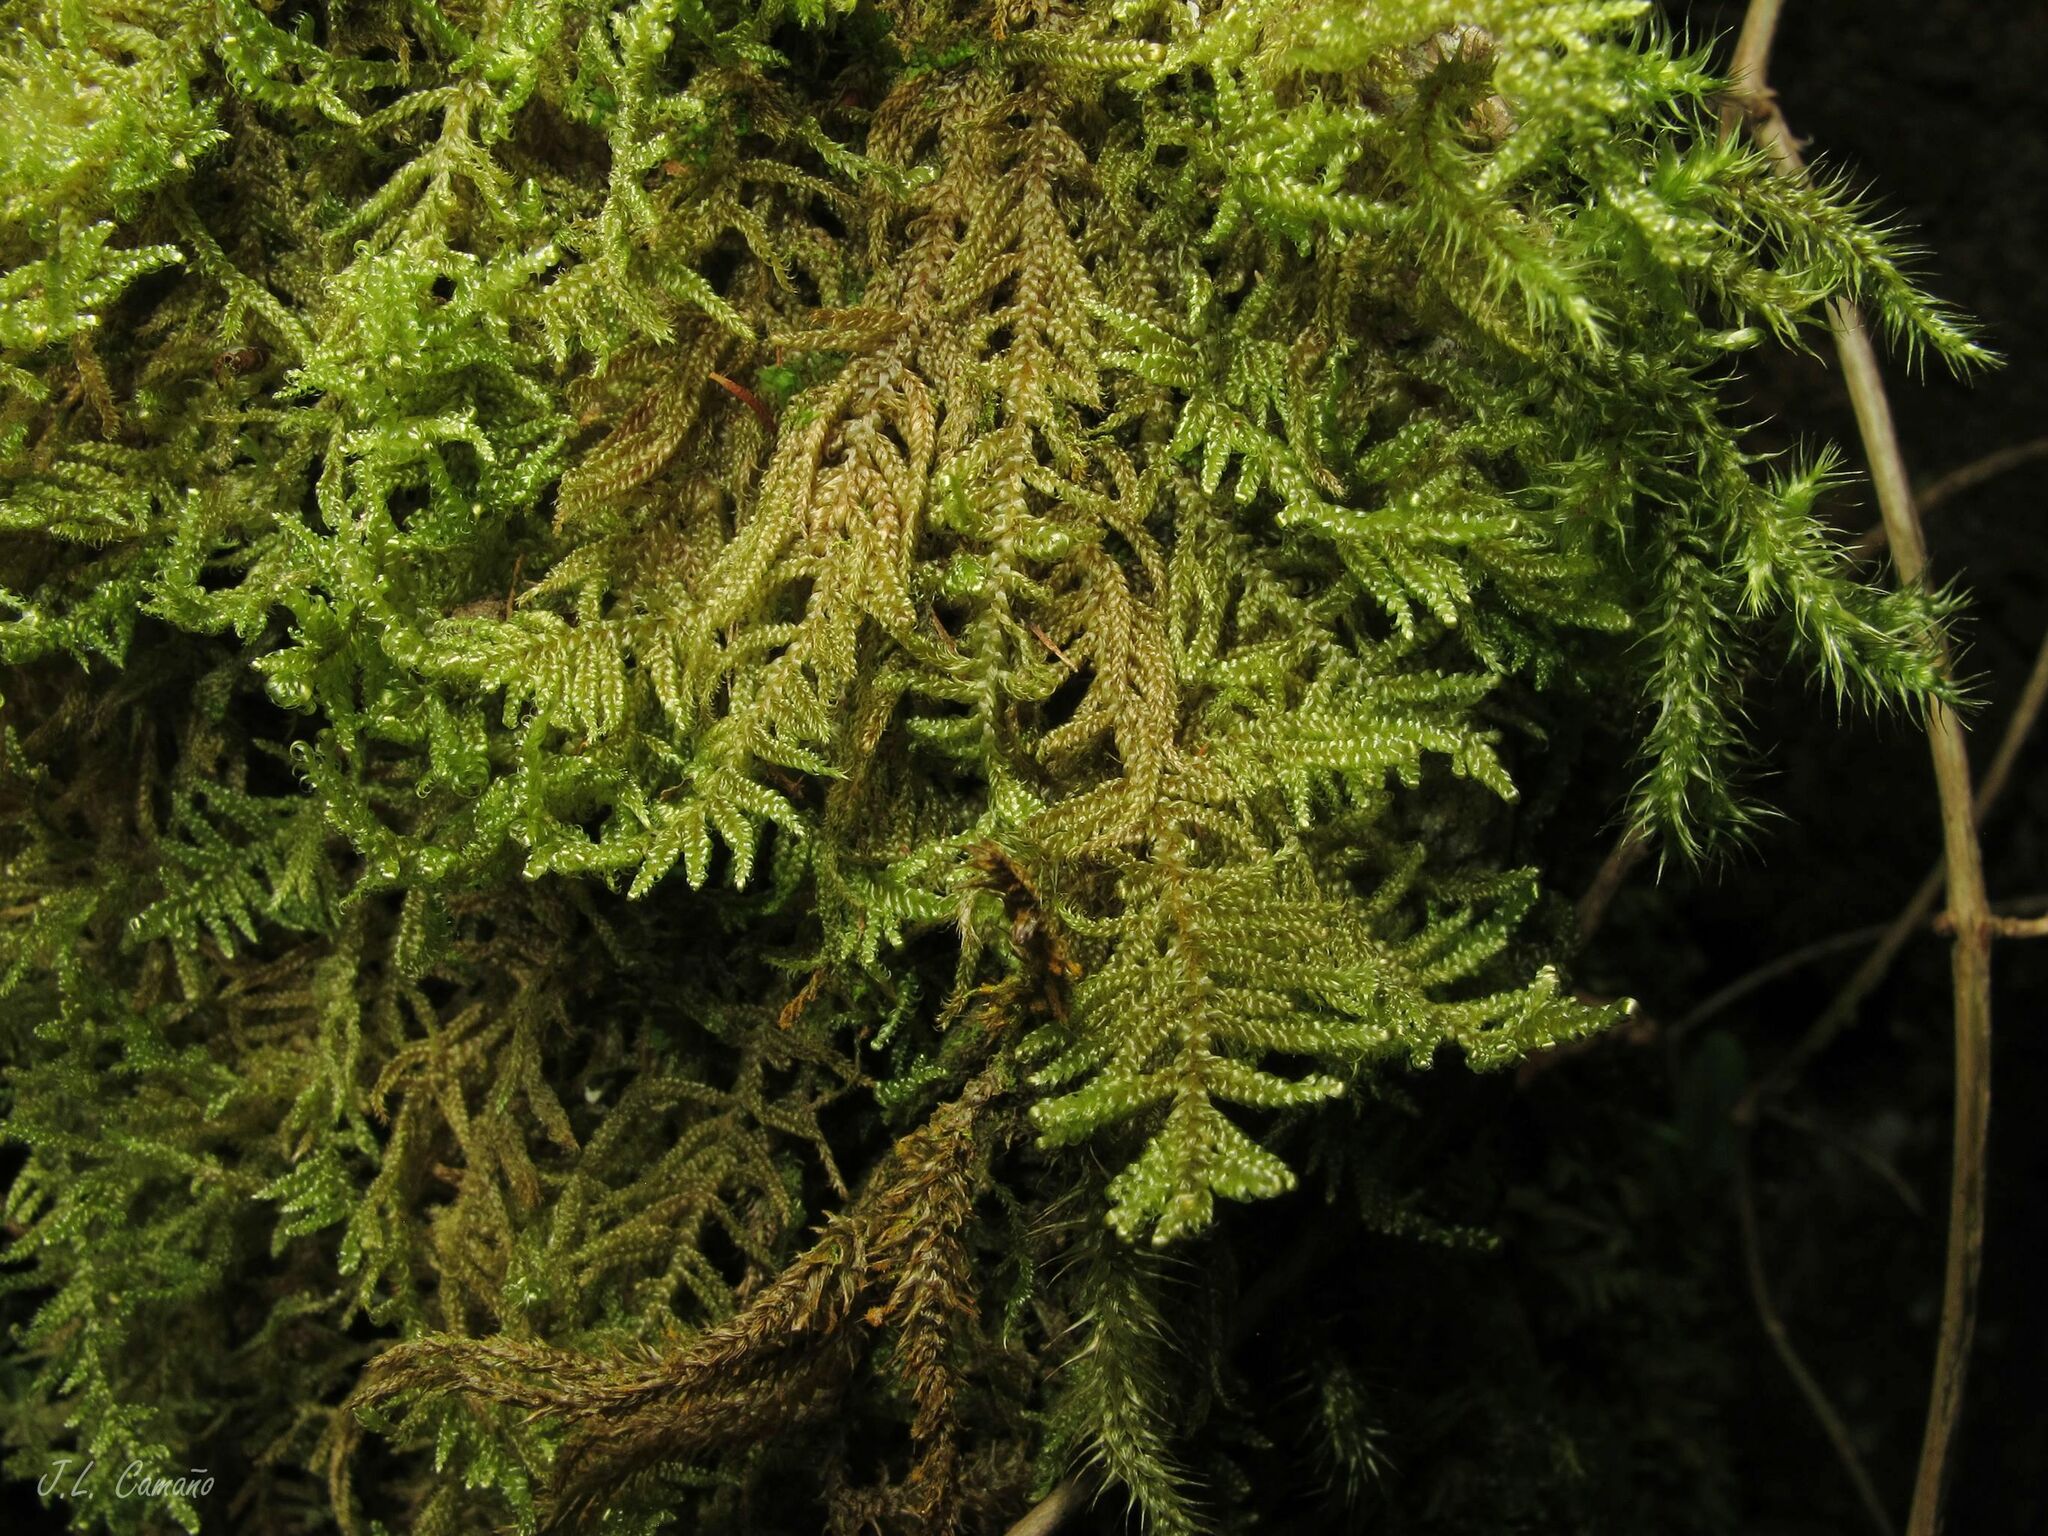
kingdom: Plantae
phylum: Bryophyta
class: Bryopsida
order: Hypnales
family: Callicladiaceae
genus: Callicladium
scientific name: Callicladium imponens
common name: Brocade moss
